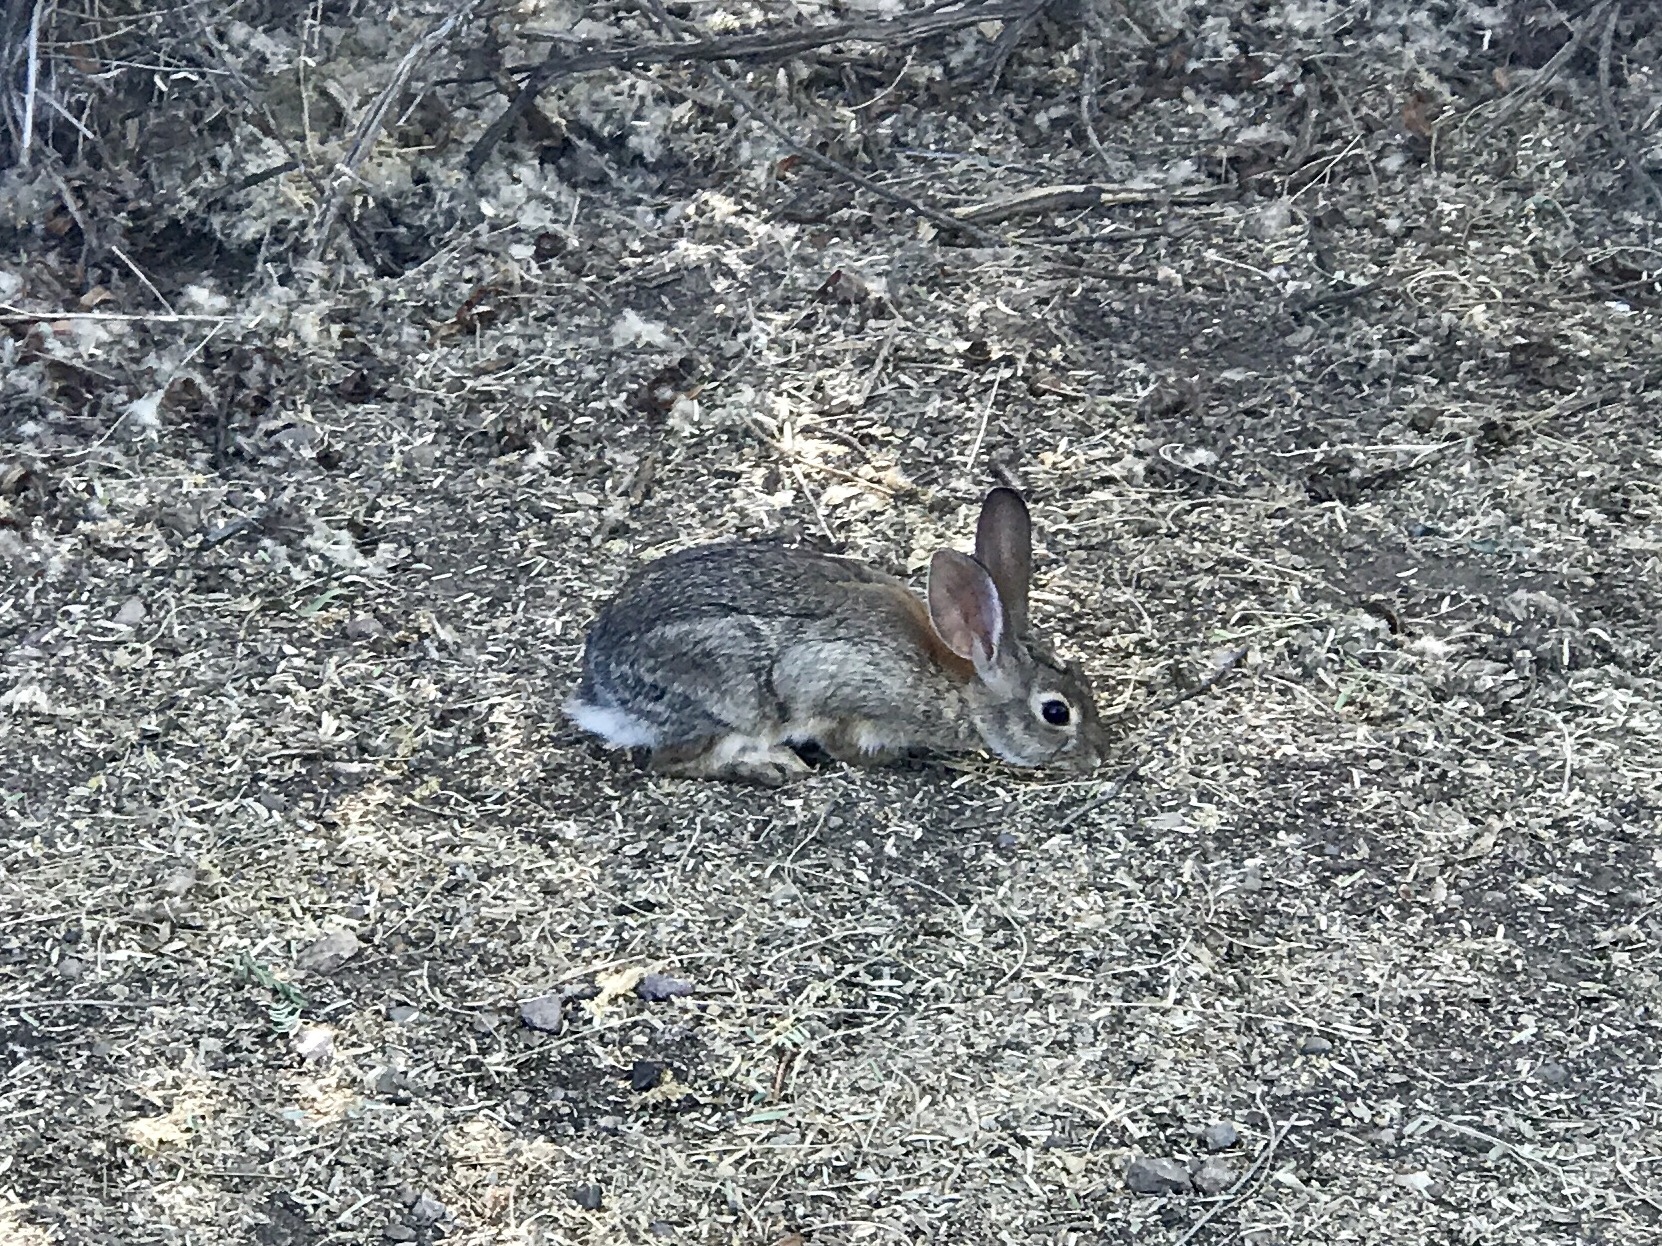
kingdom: Animalia
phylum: Chordata
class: Mammalia
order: Lagomorpha
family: Leporidae
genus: Sylvilagus
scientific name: Sylvilagus audubonii
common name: Desert cottontail
